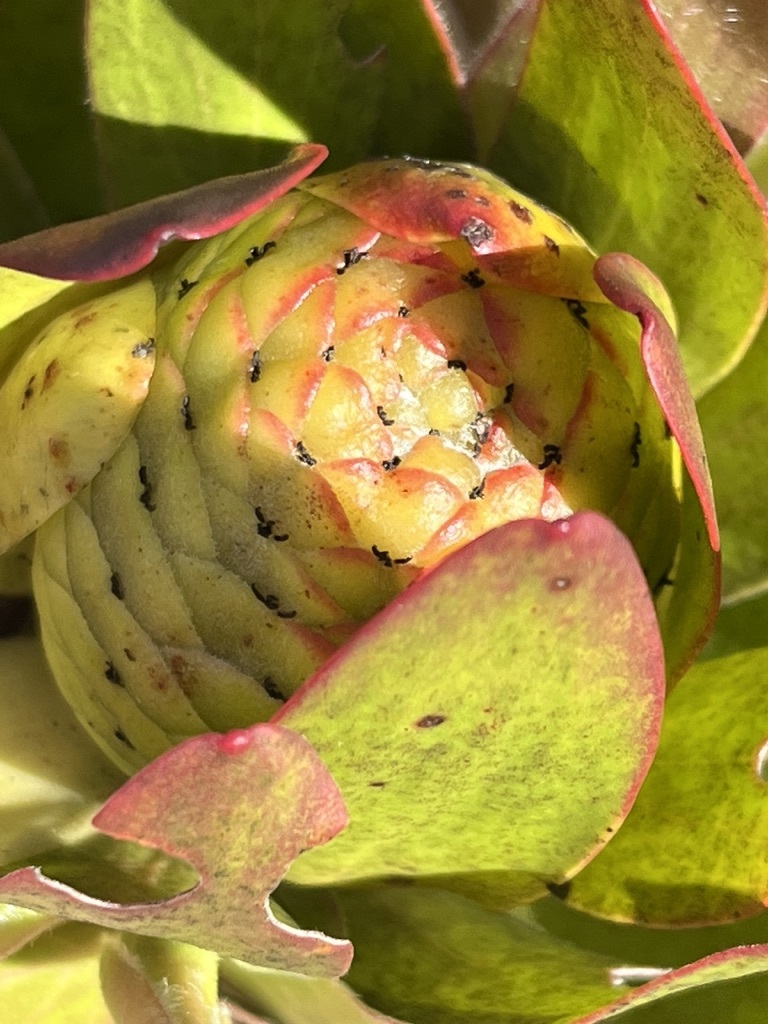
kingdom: Plantae
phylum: Tracheophyta
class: Magnoliopsida
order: Proteales
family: Proteaceae
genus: Leucadendron
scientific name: Leucadendron laureolum
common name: Golden sunshinebush
